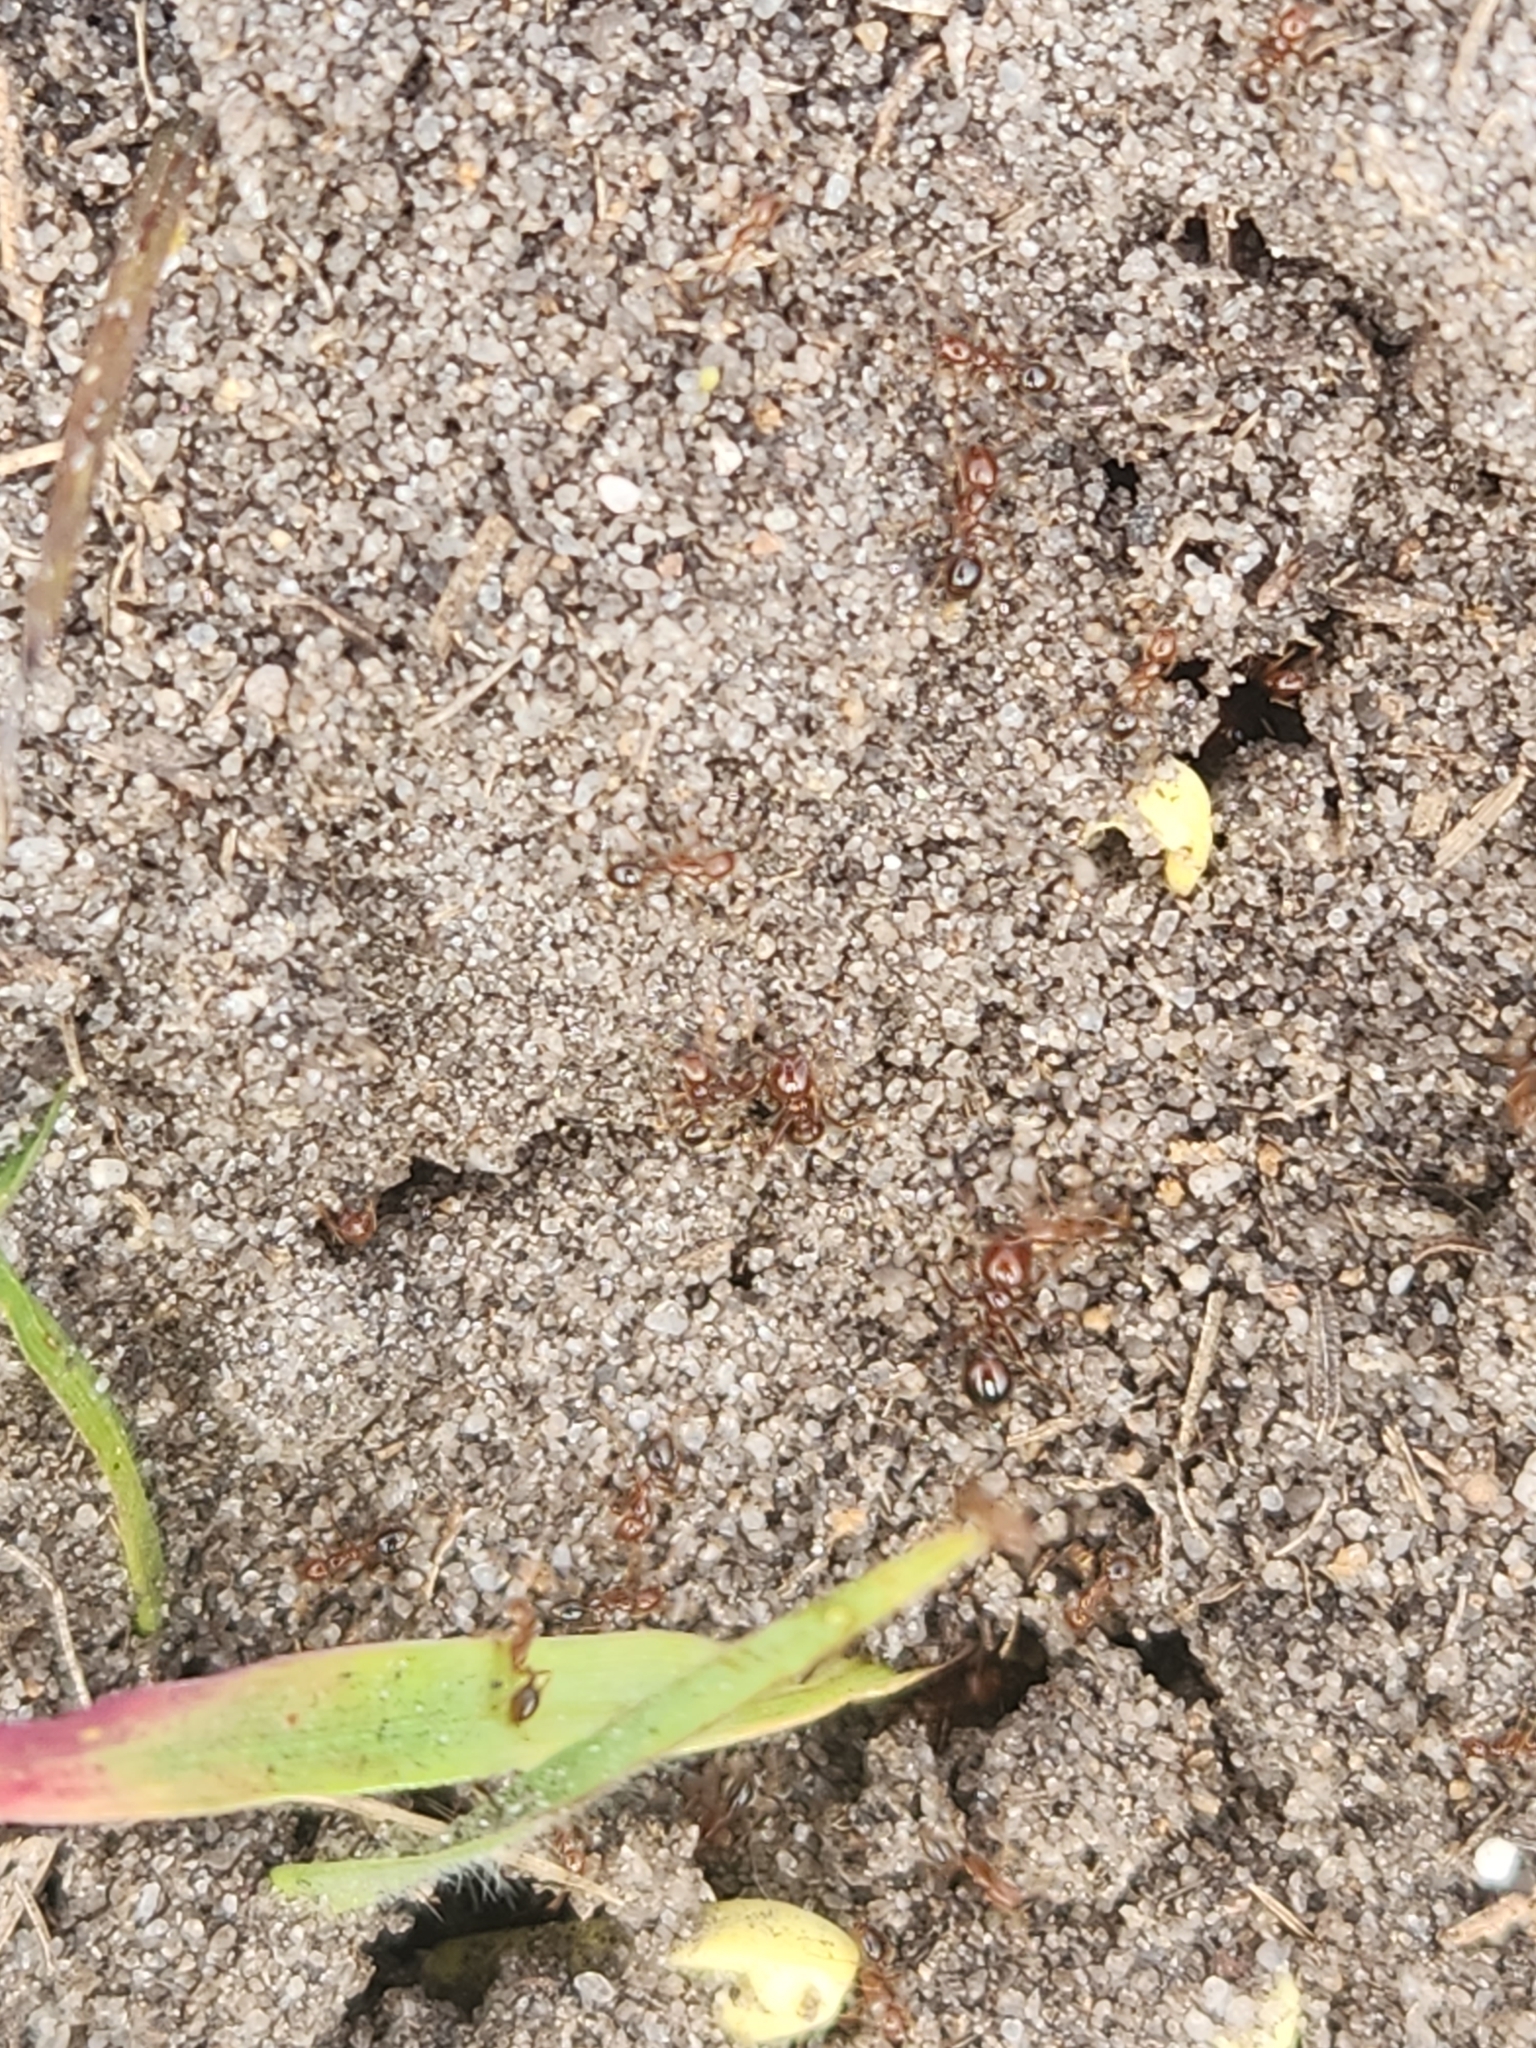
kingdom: Animalia
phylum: Arthropoda
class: Insecta
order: Hymenoptera
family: Formicidae
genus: Solenopsis
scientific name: Solenopsis invicta
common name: Red imported fire ant
